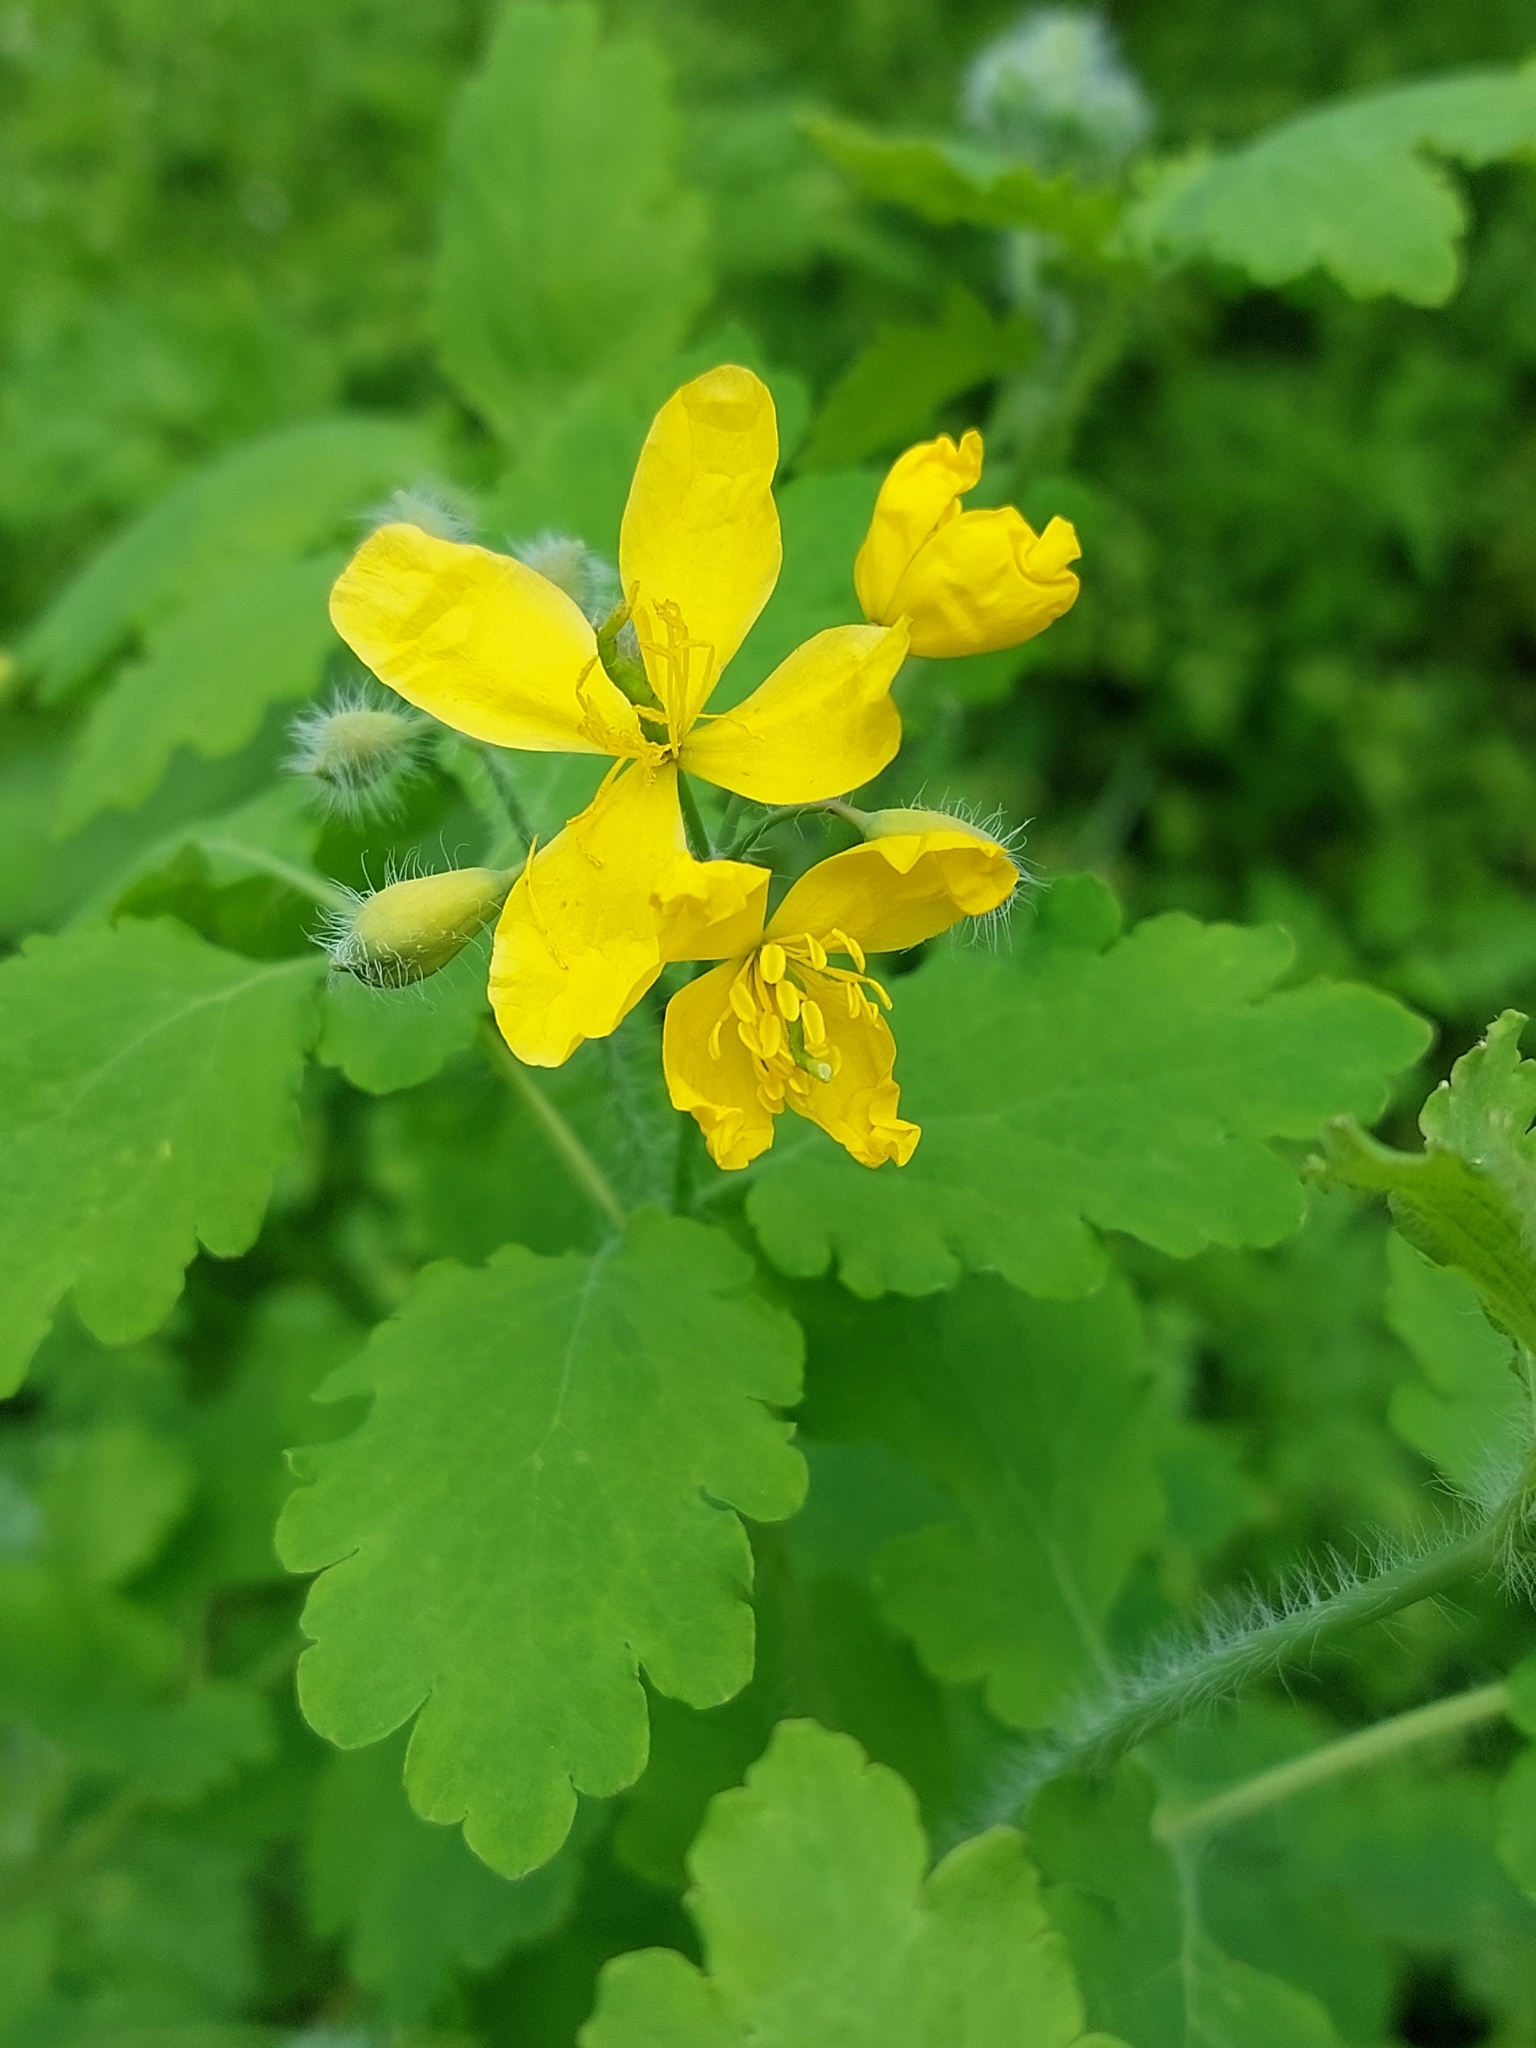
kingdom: Plantae
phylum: Tracheophyta
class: Magnoliopsida
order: Ranunculales
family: Papaveraceae
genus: Chelidonium
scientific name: Chelidonium majus
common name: Greater celandine
